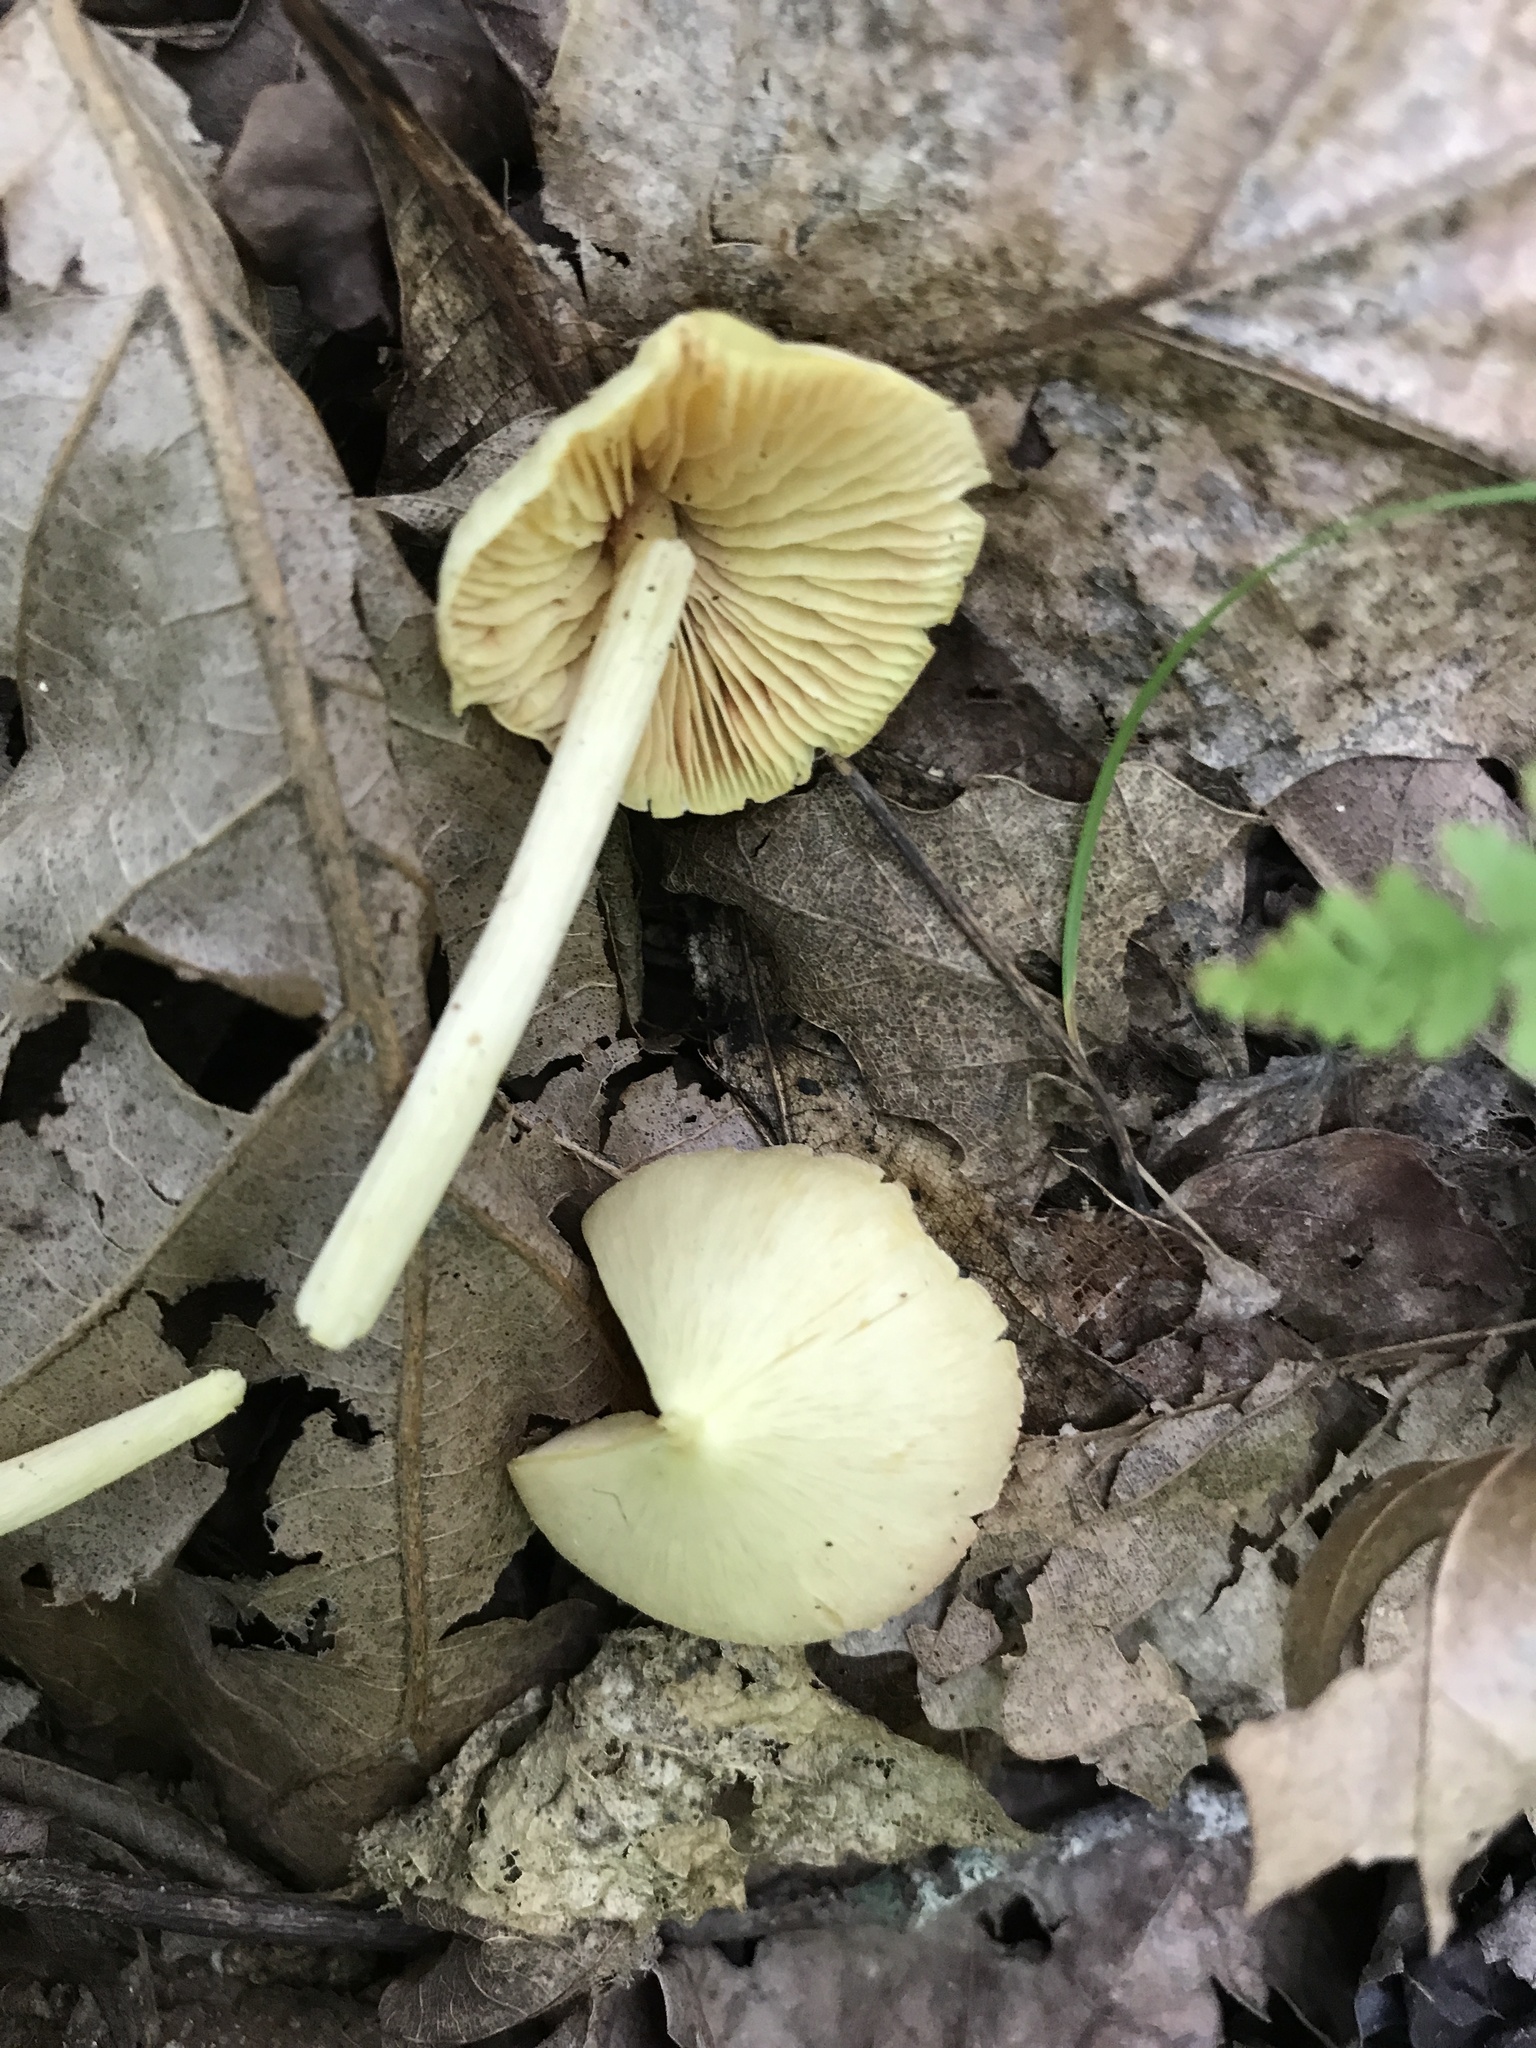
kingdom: Fungi
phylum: Basidiomycota
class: Agaricomycetes
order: Agaricales
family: Entolomataceae
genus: Entoloma
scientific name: Entoloma murrayi
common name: Yellow unicorn entoloma
